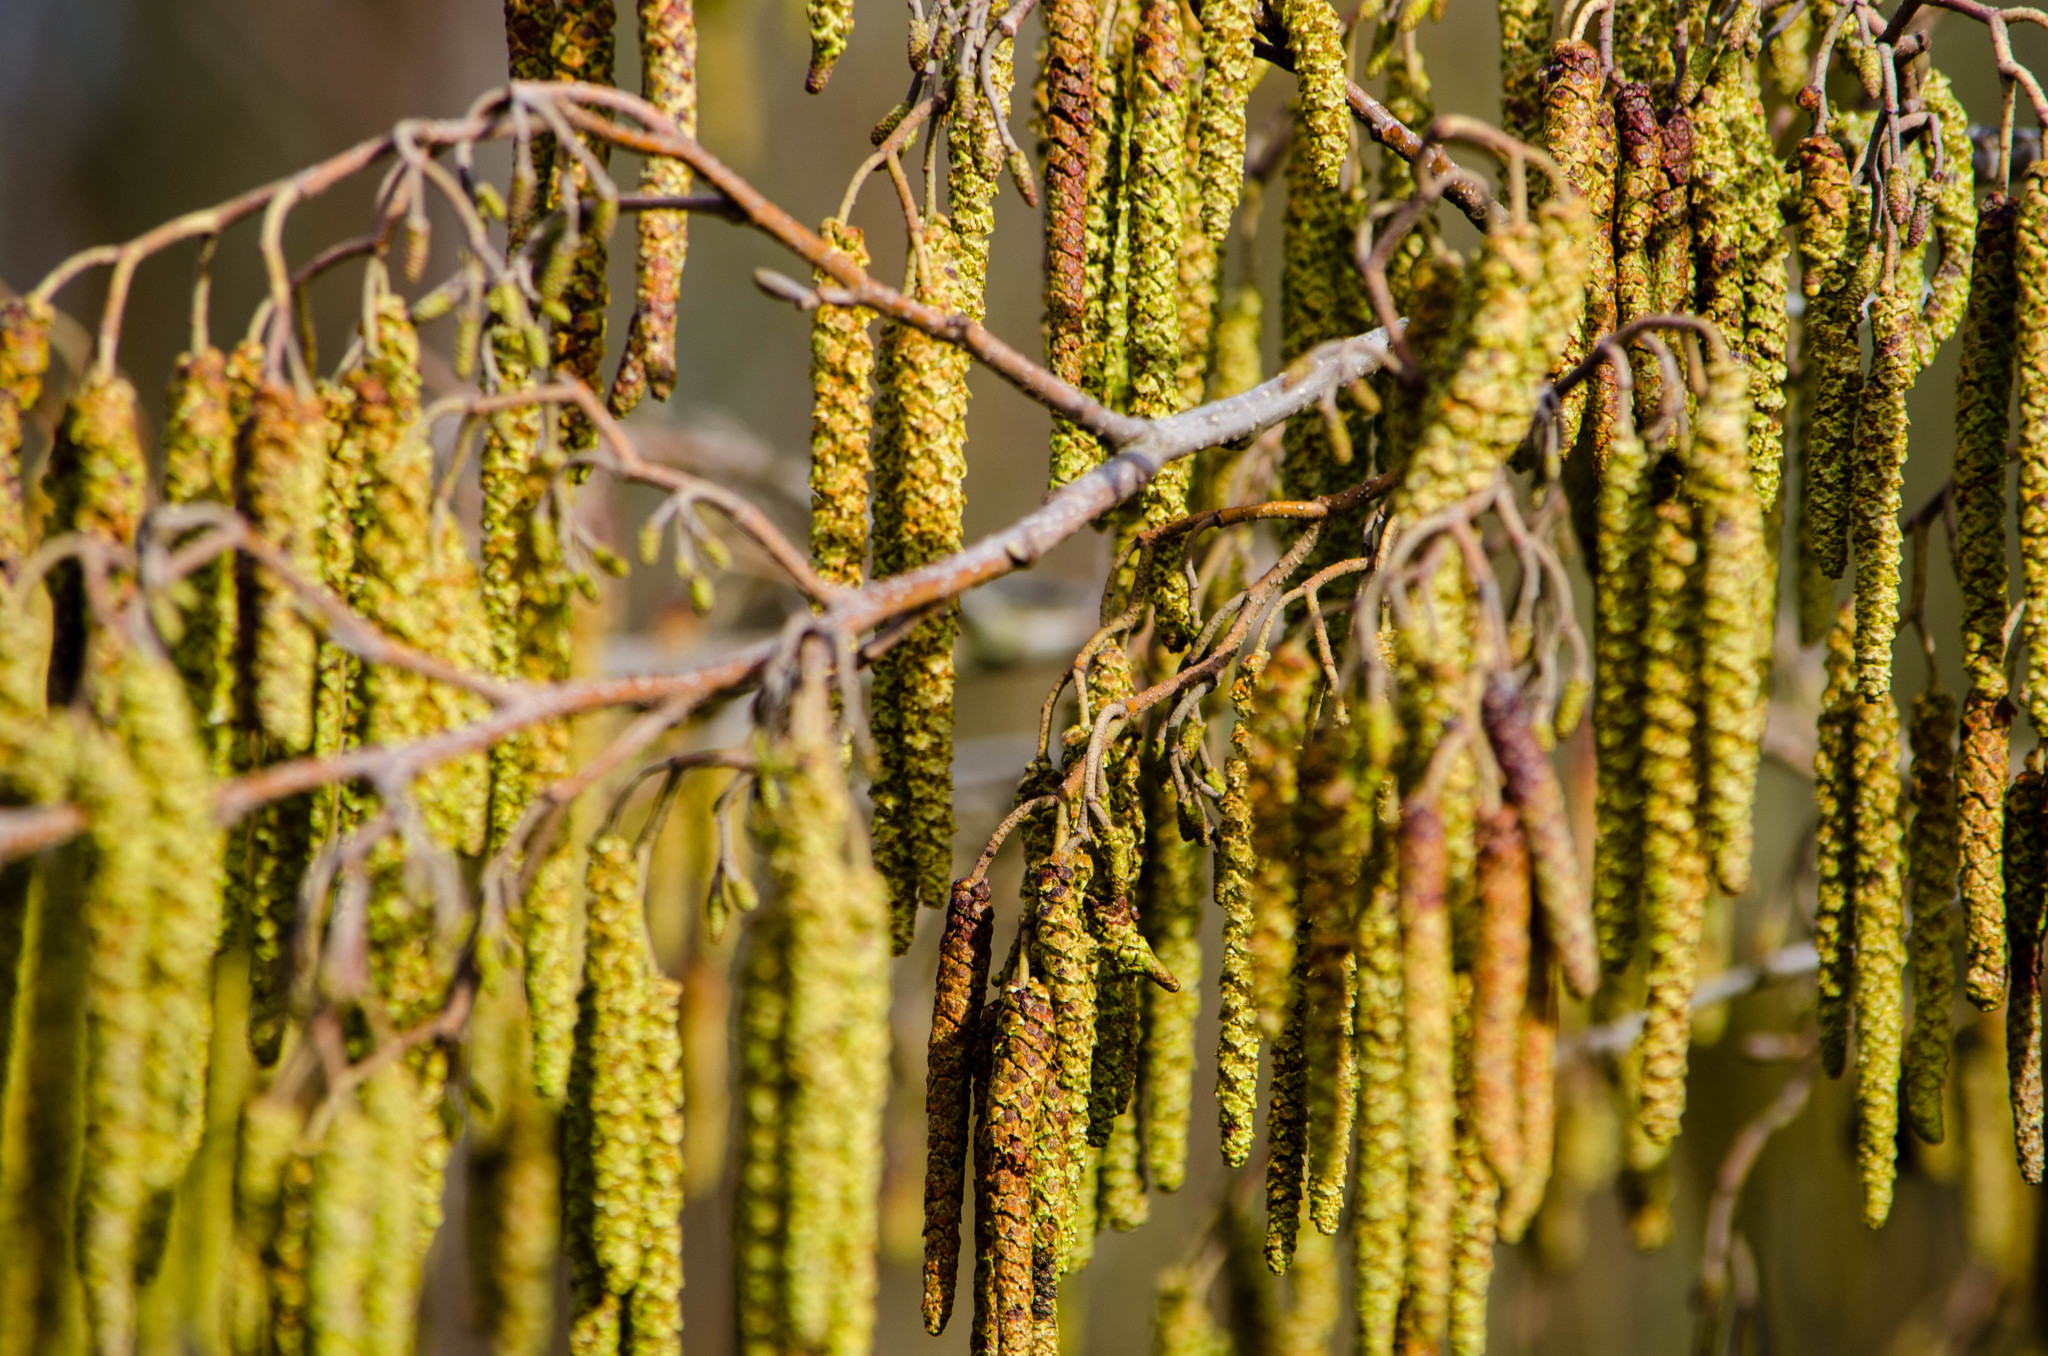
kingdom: Plantae
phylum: Tracheophyta
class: Magnoliopsida
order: Fagales
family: Betulaceae
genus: Alnus
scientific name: Alnus glutinosa
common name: Black alder
